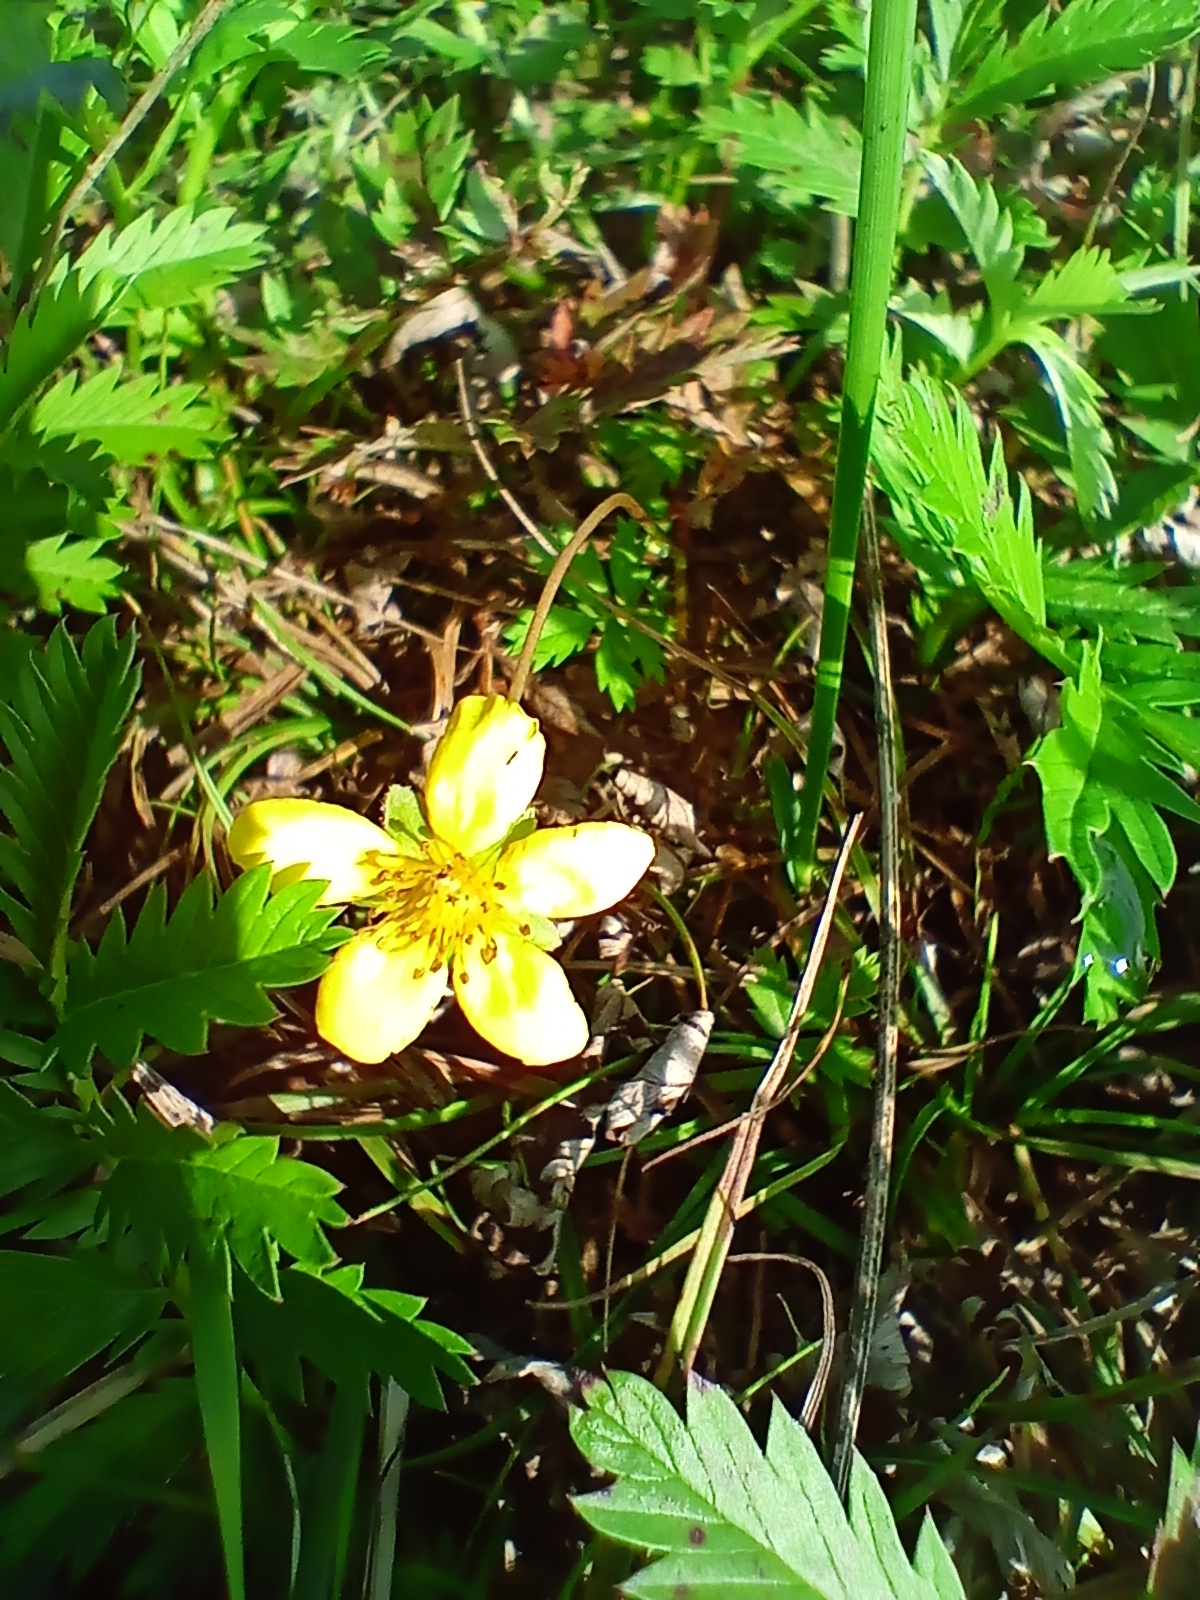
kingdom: Plantae
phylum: Tracheophyta
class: Magnoliopsida
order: Rosales
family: Rosaceae
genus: Argentina
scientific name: Argentina anserina
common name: Common silverweed
